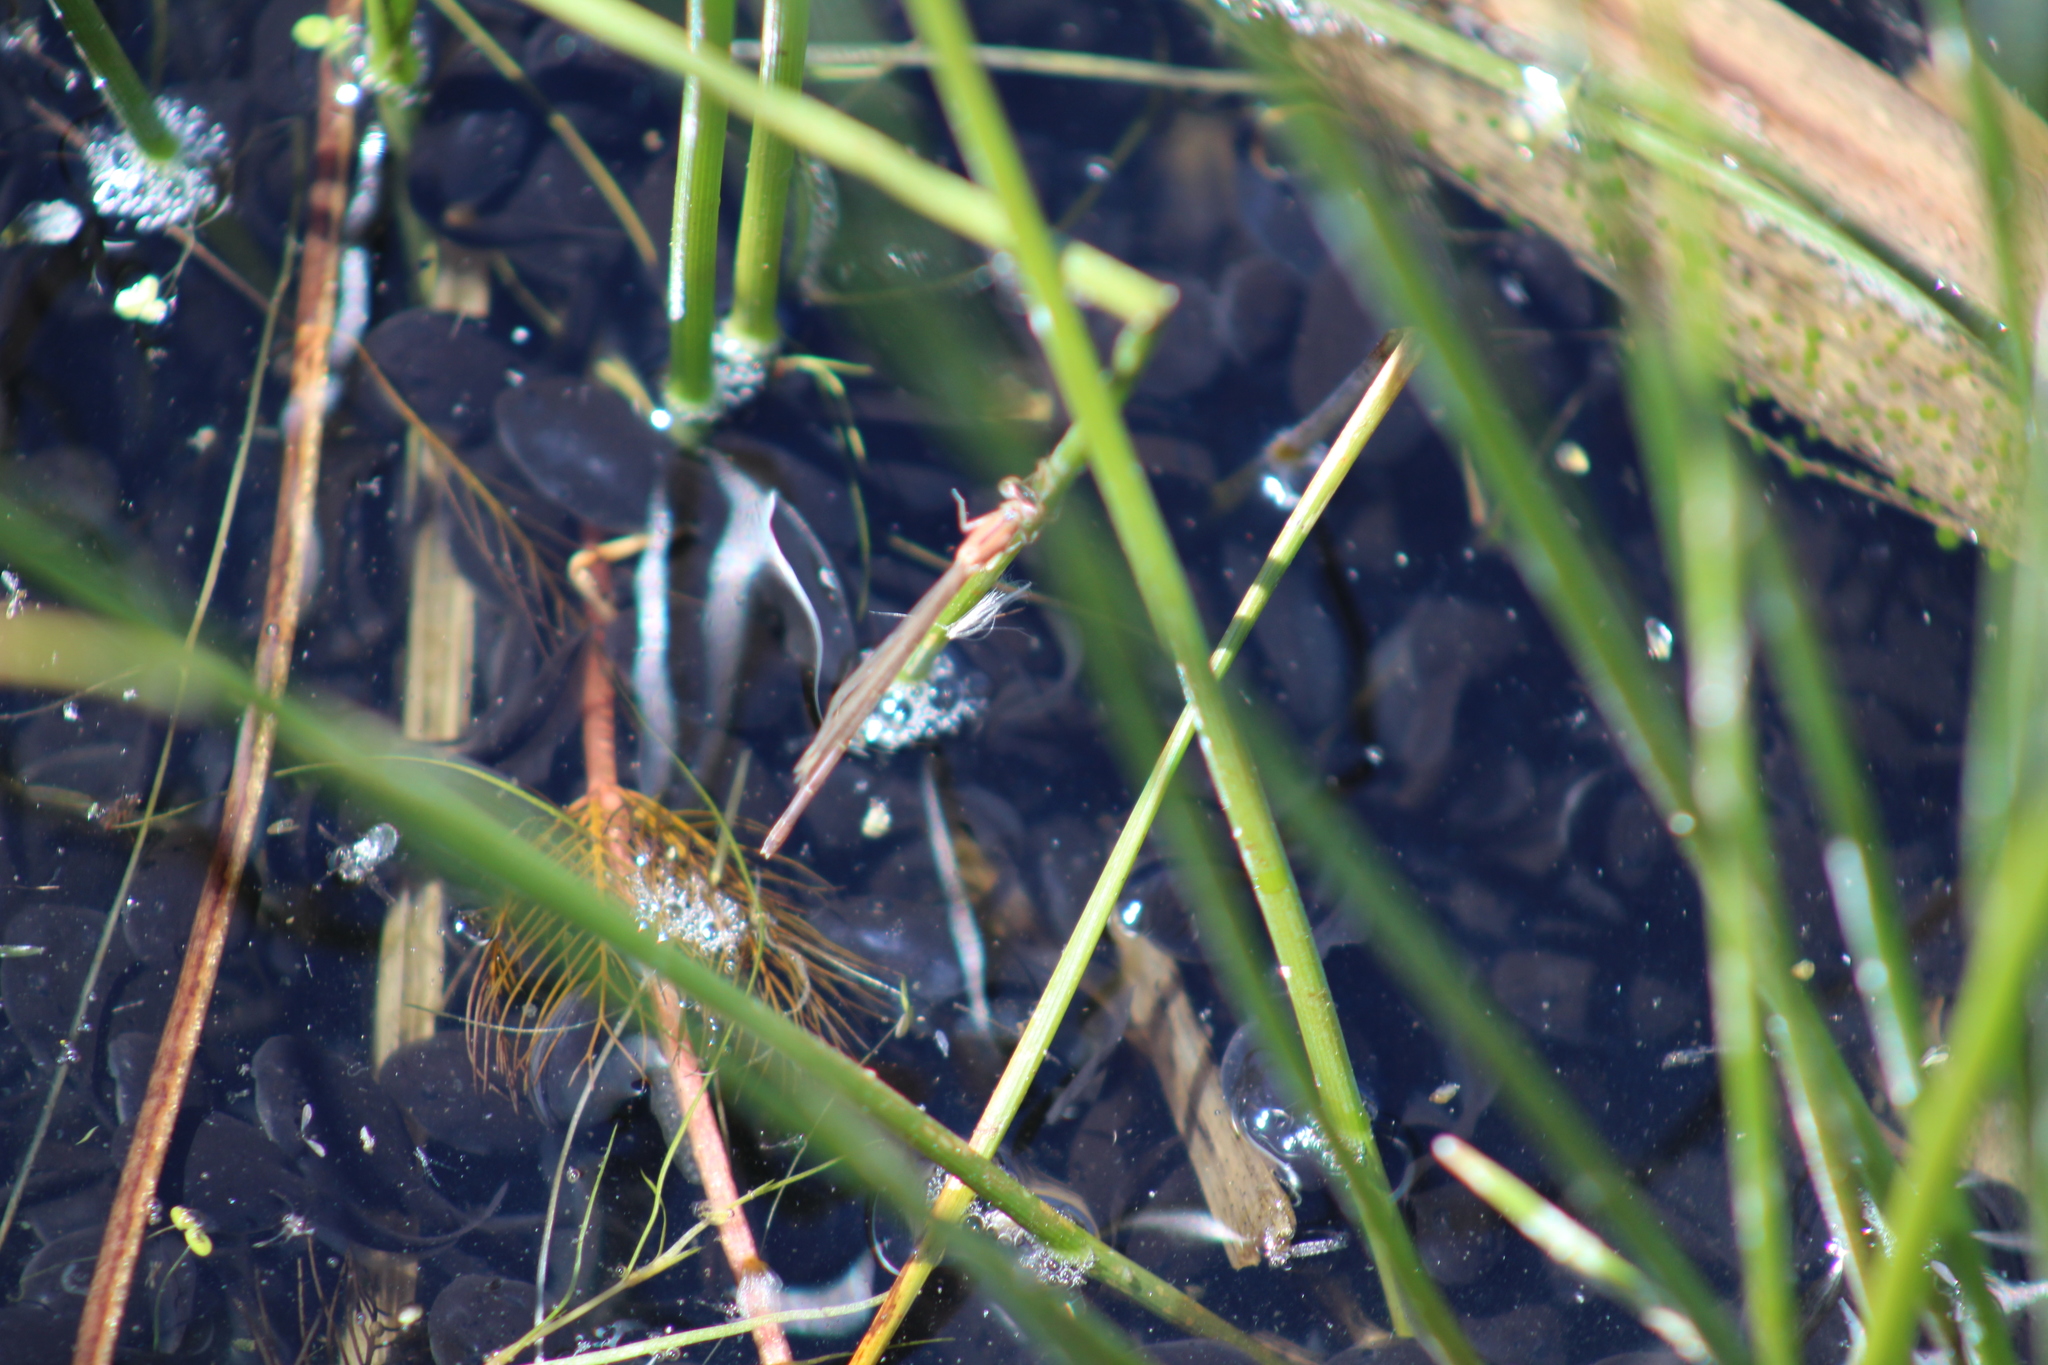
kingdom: Animalia
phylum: Chordata
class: Amphibia
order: Anura
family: Bufonidae
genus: Anaxyrus
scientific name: Anaxyrus boreas
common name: Western toad
